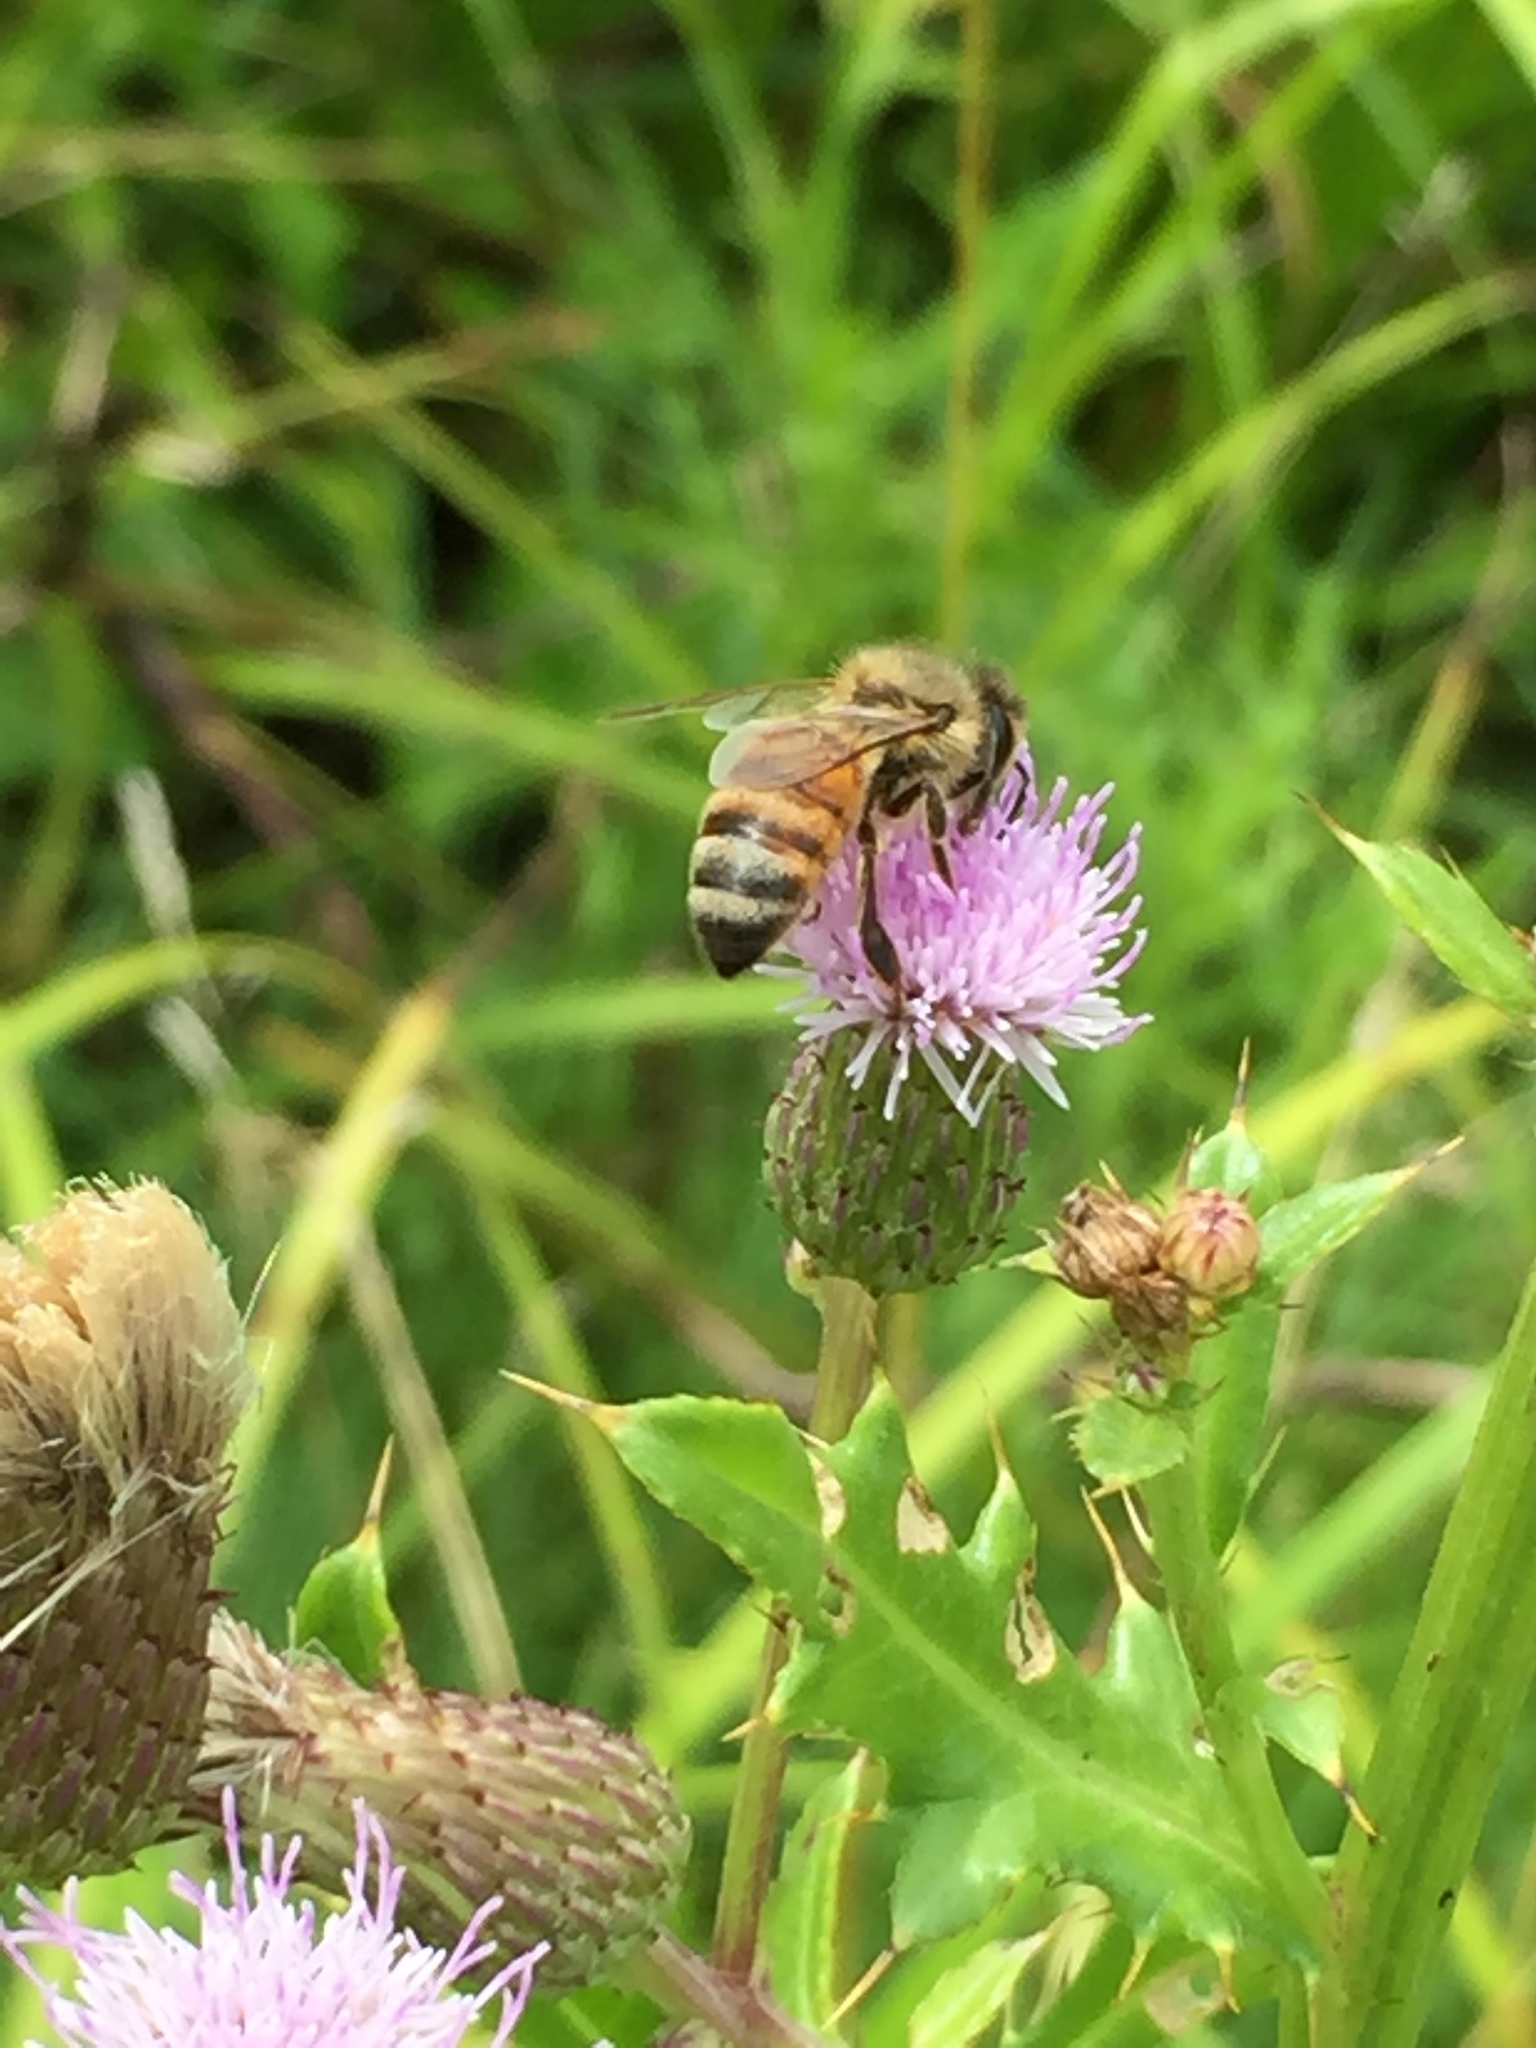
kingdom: Animalia
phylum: Arthropoda
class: Insecta
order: Hymenoptera
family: Apidae
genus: Apis
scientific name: Apis mellifera
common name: Honey bee
